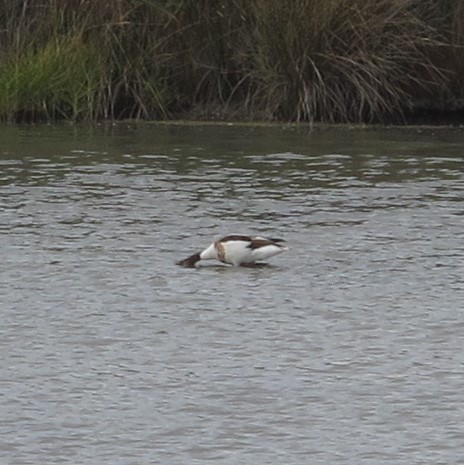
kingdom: Animalia
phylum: Chordata
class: Aves
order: Anseriformes
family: Anatidae
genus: Tadorna
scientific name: Tadorna tadorna
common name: Common shelduck
